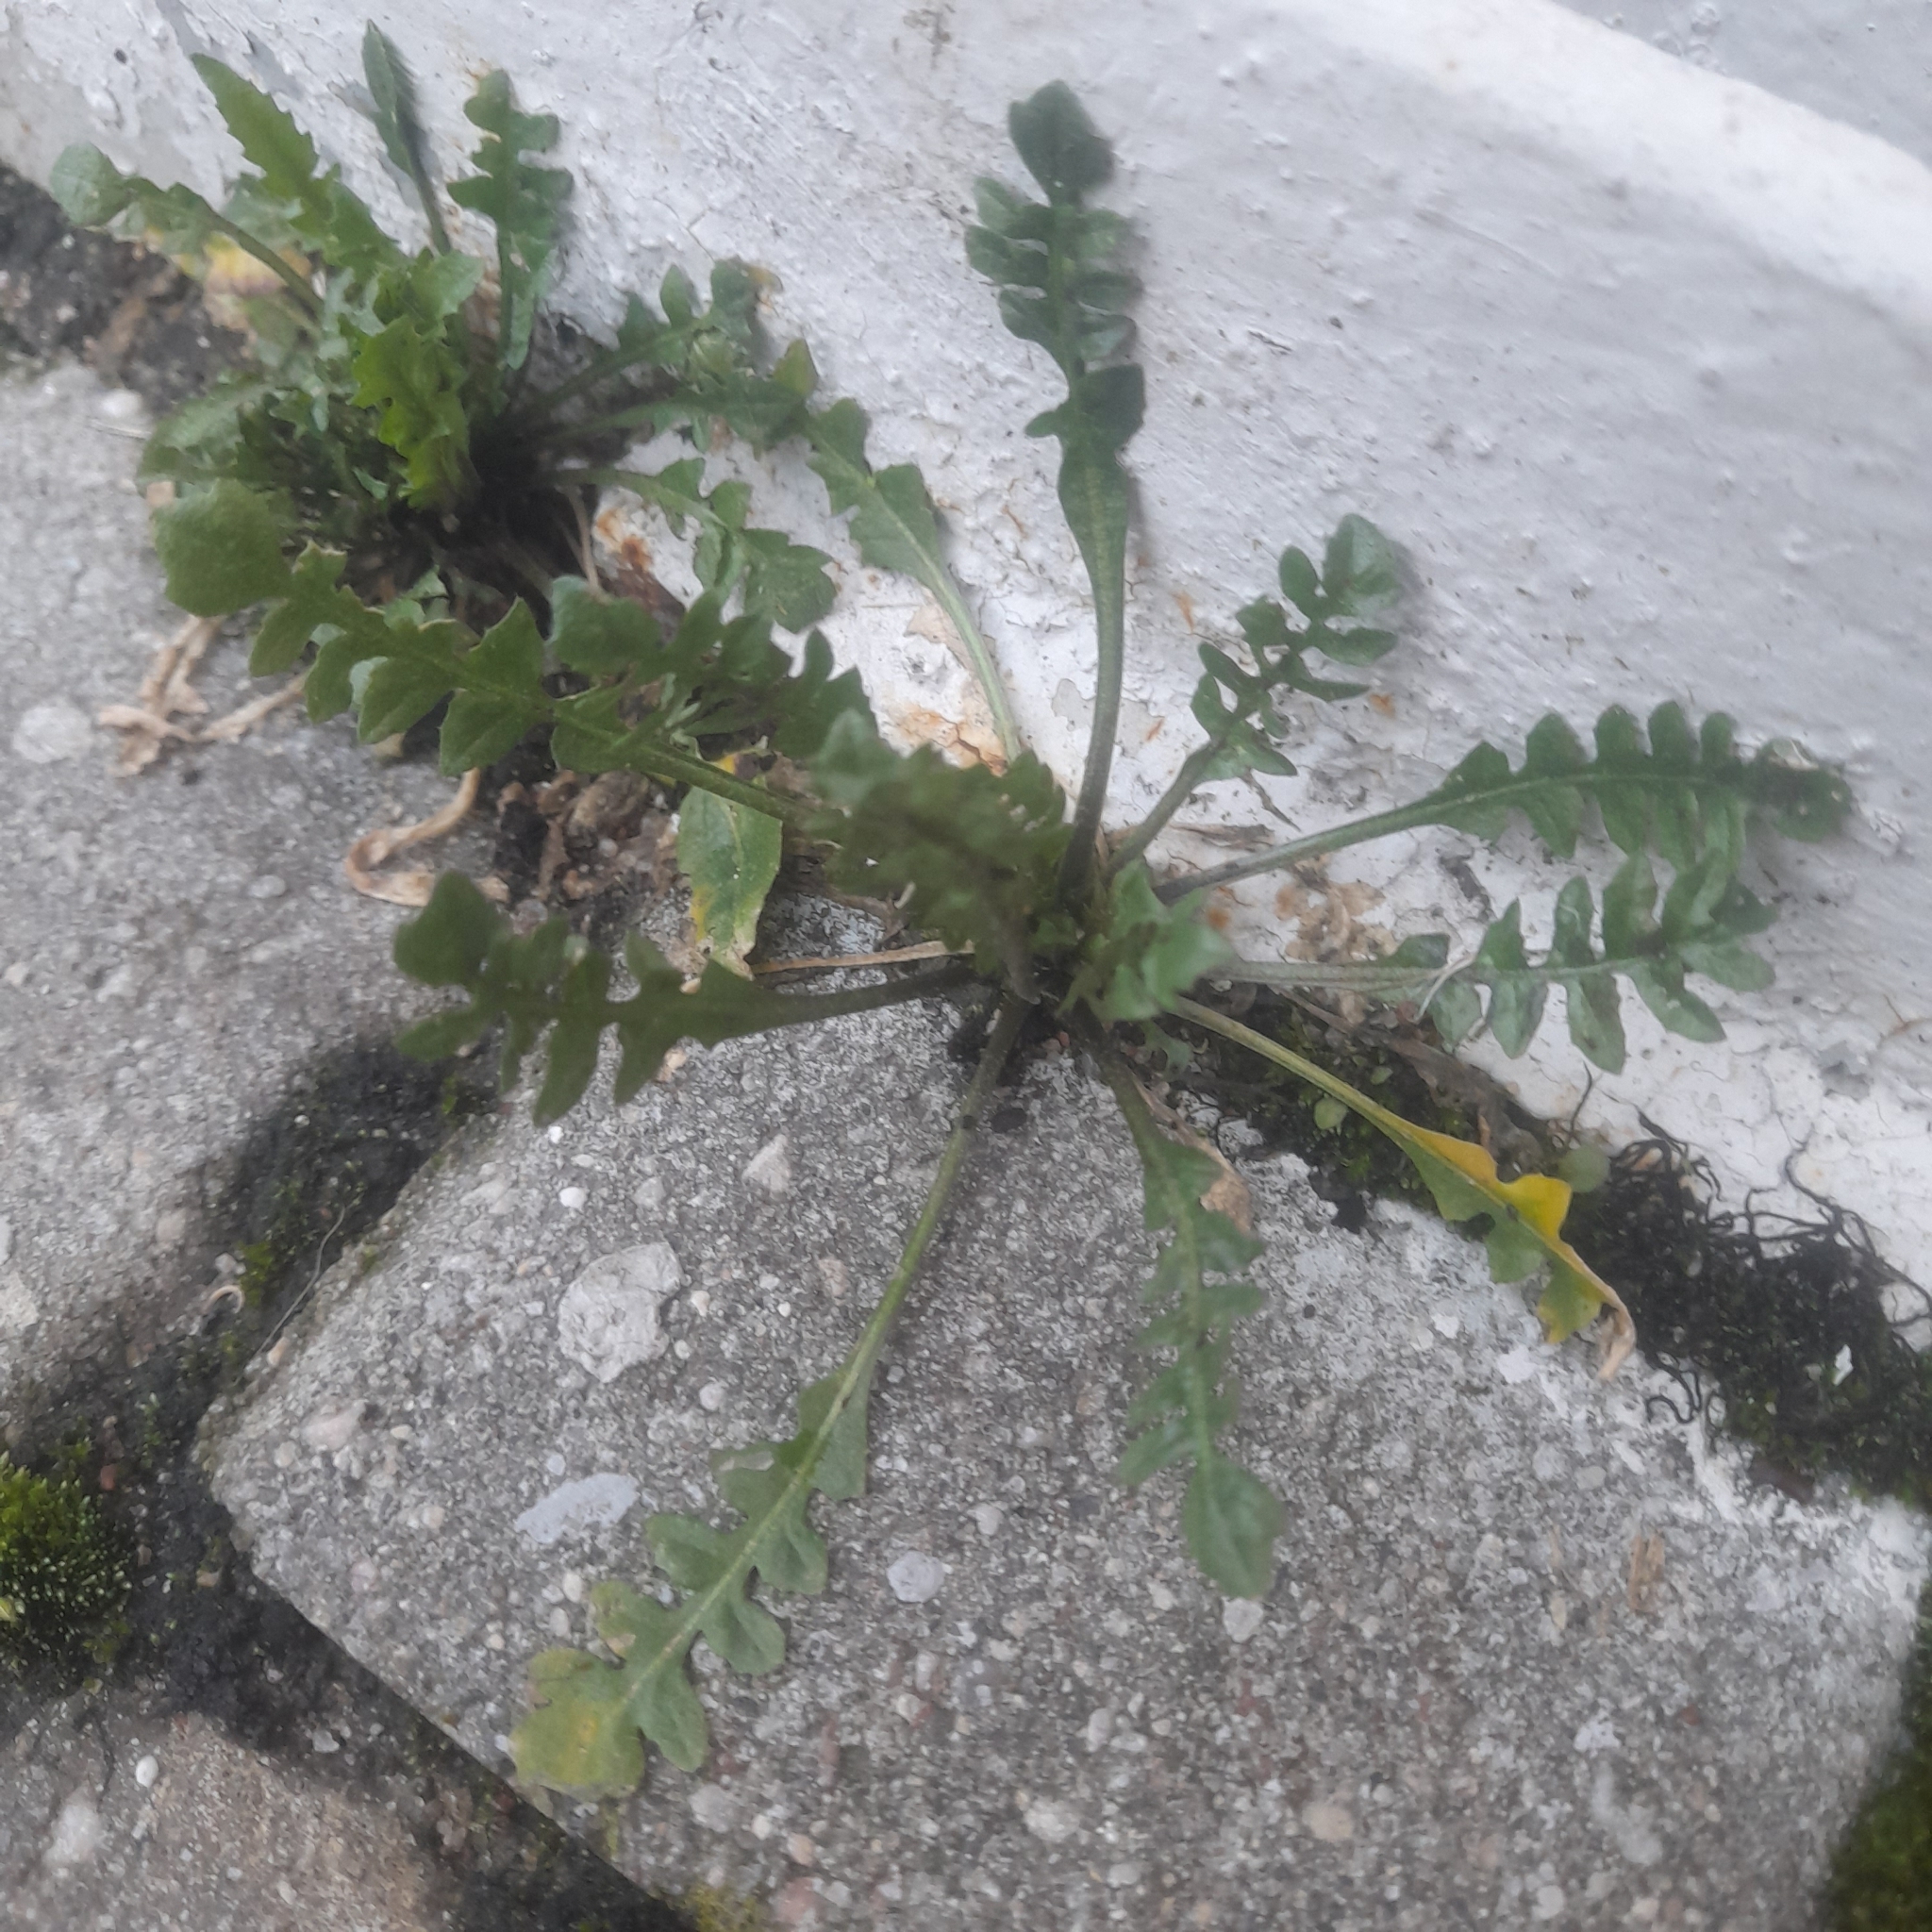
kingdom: Plantae
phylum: Tracheophyta
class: Magnoliopsida
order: Brassicales
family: Brassicaceae
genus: Capsella
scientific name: Capsella bursa-pastoris
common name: Shepherd's purse
